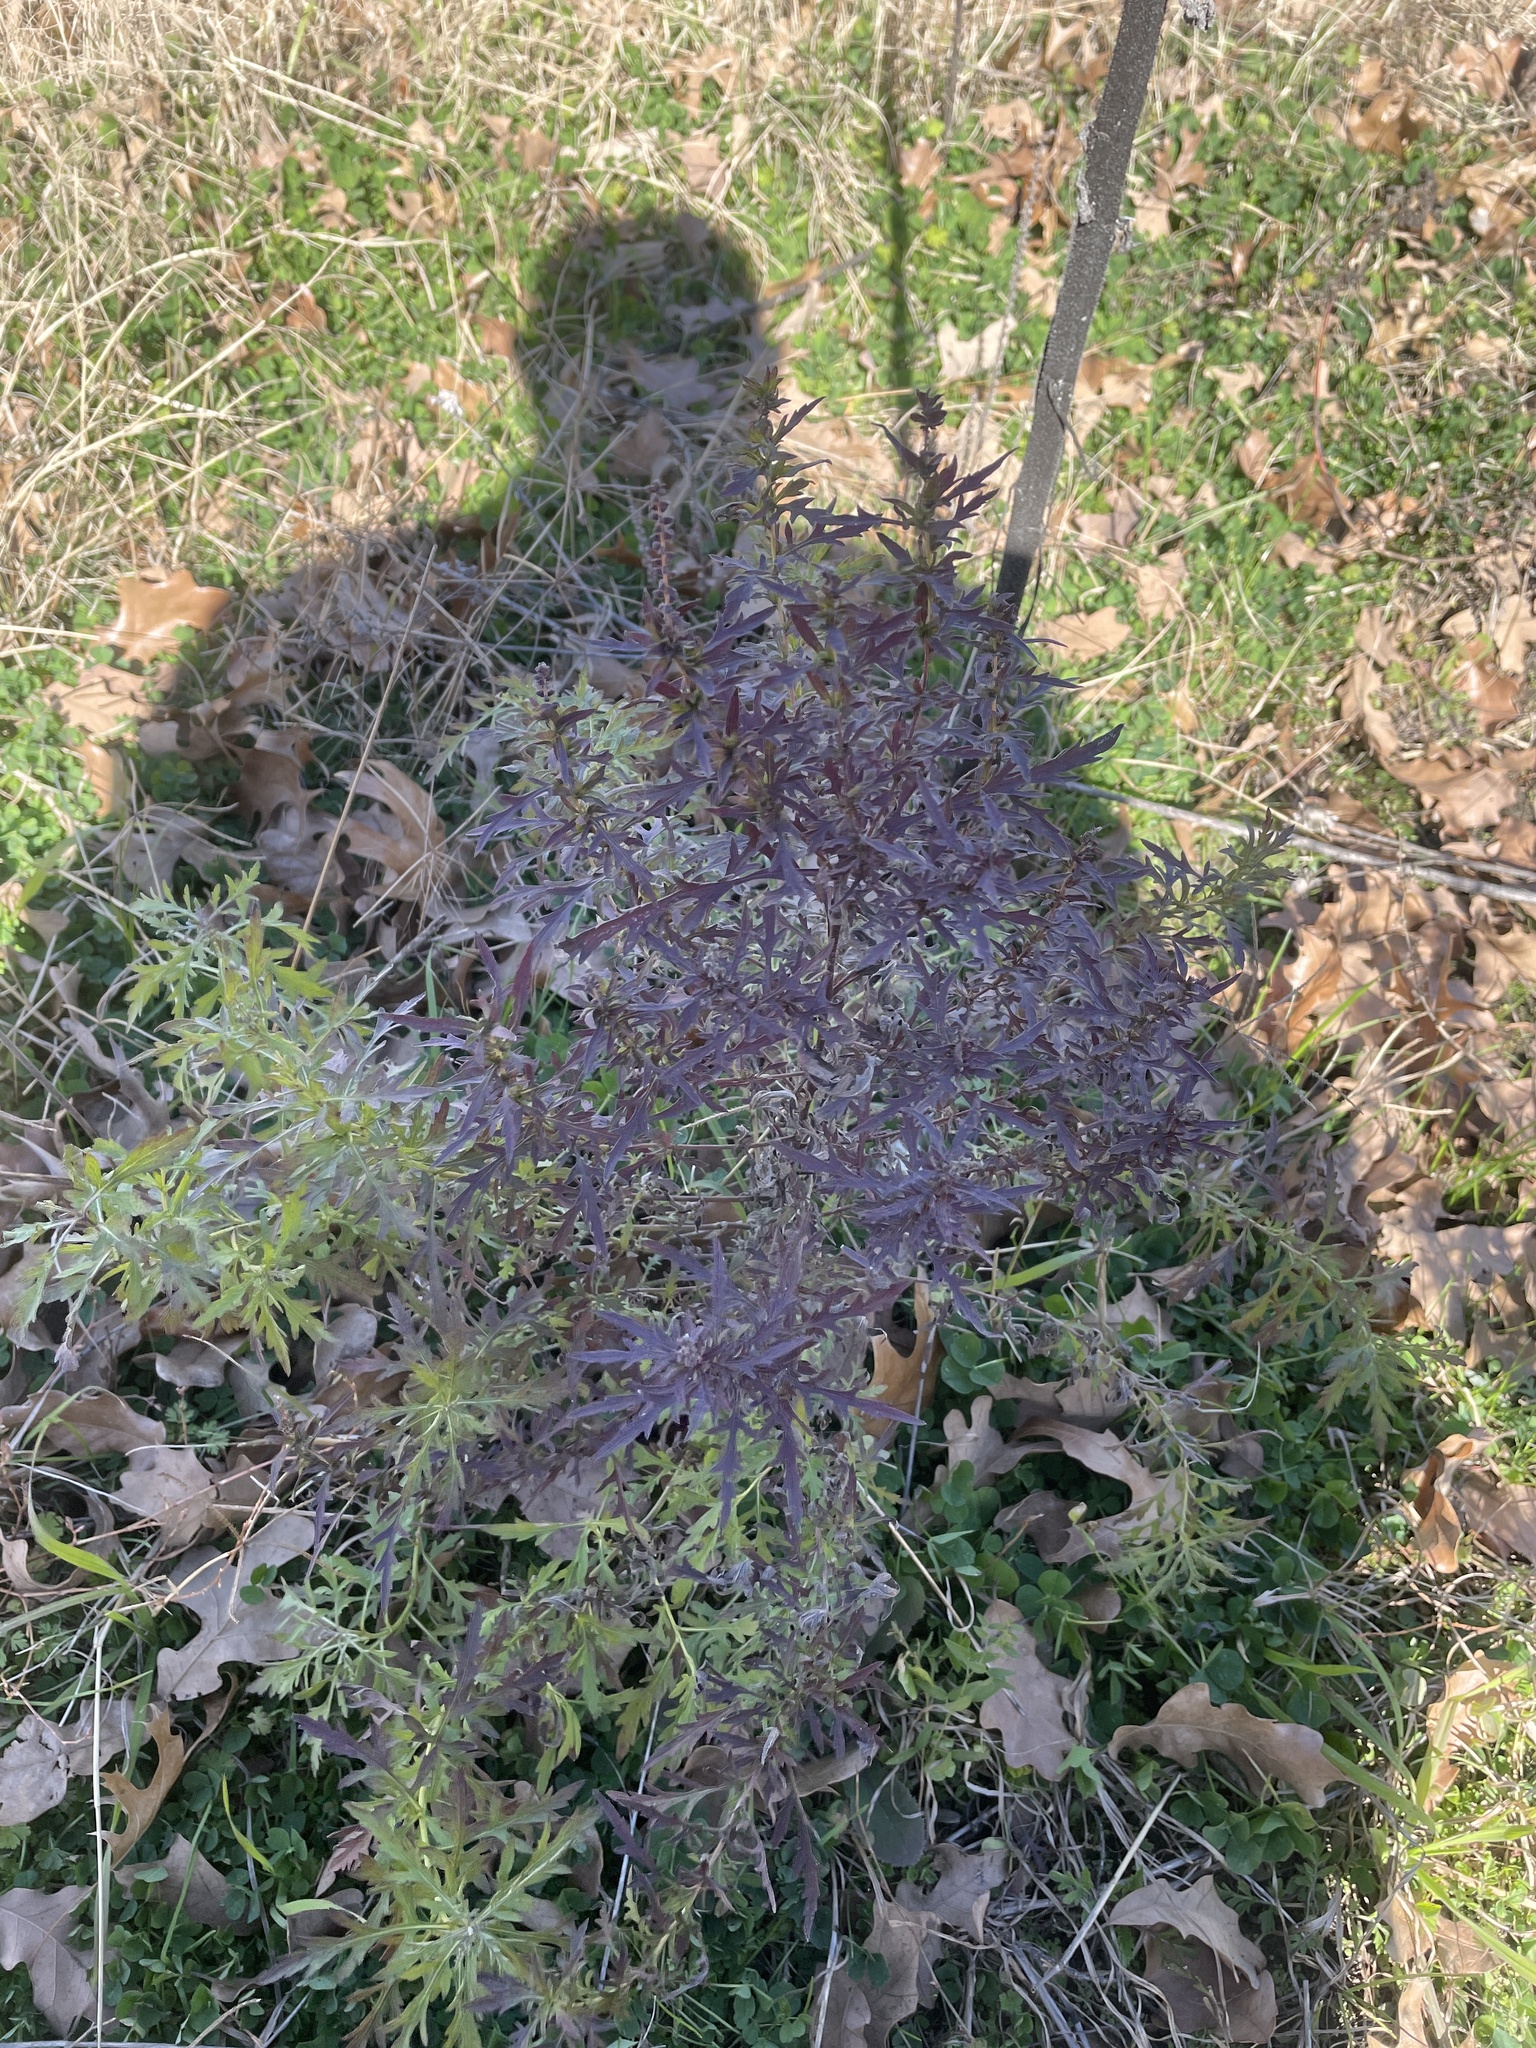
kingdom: Plantae
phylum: Tracheophyta
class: Magnoliopsida
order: Asterales
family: Asteraceae
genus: Ambrosia
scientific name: Ambrosia psilostachya
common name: Perennial ragweed
